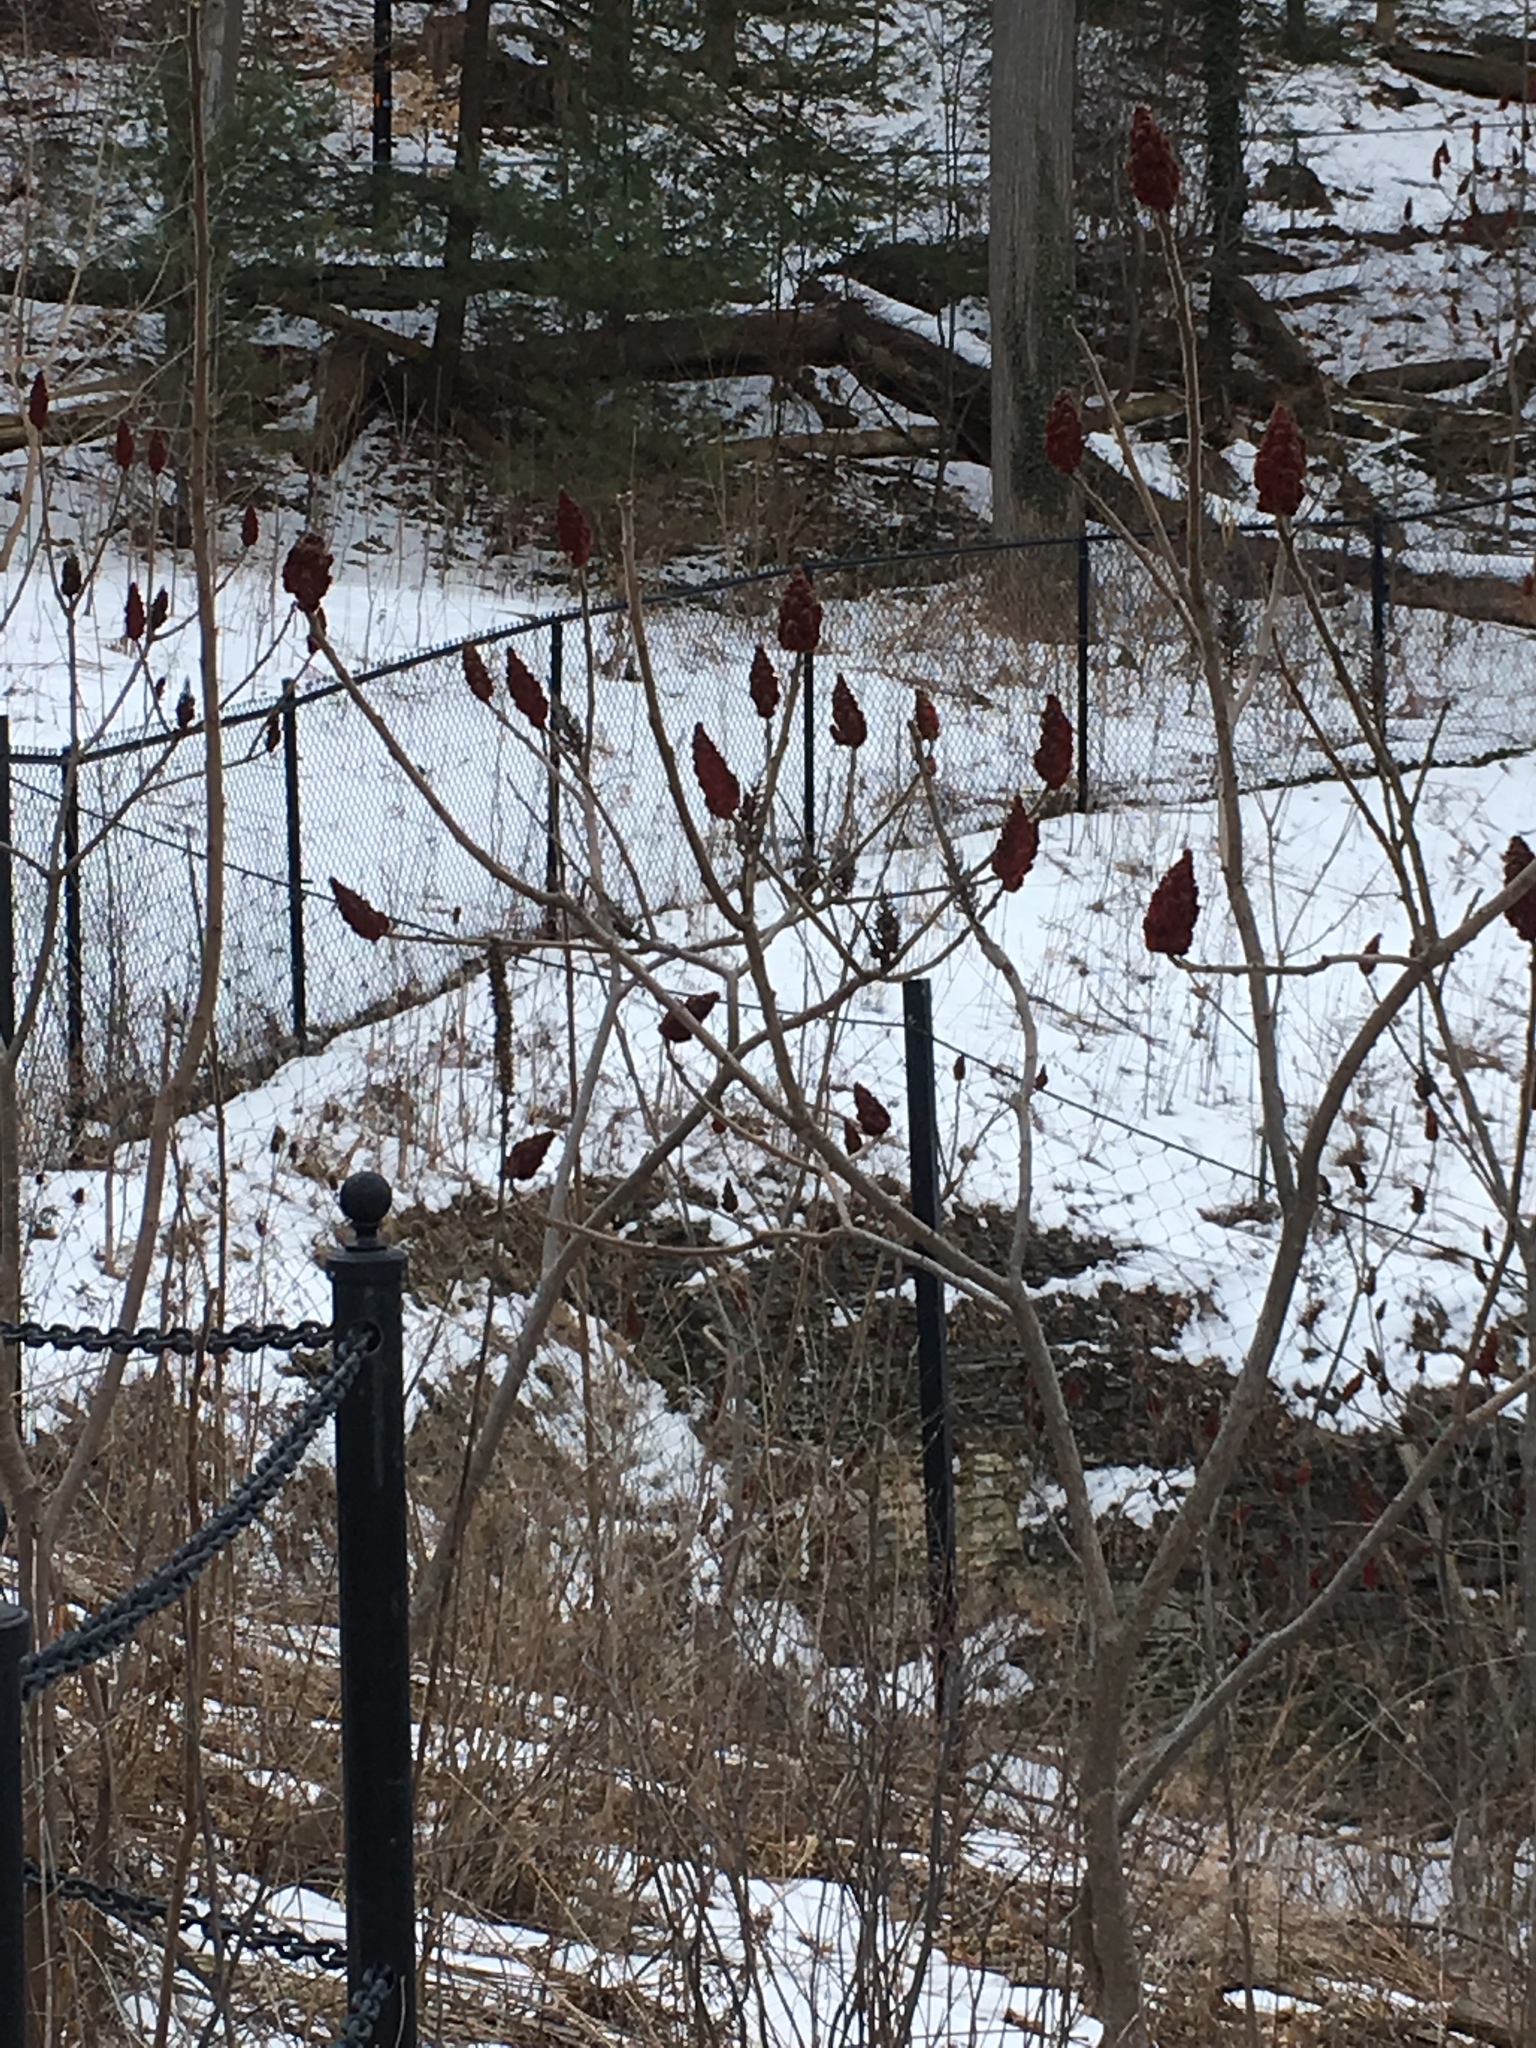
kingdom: Plantae
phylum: Tracheophyta
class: Magnoliopsida
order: Sapindales
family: Anacardiaceae
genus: Rhus
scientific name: Rhus typhina
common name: Staghorn sumac
